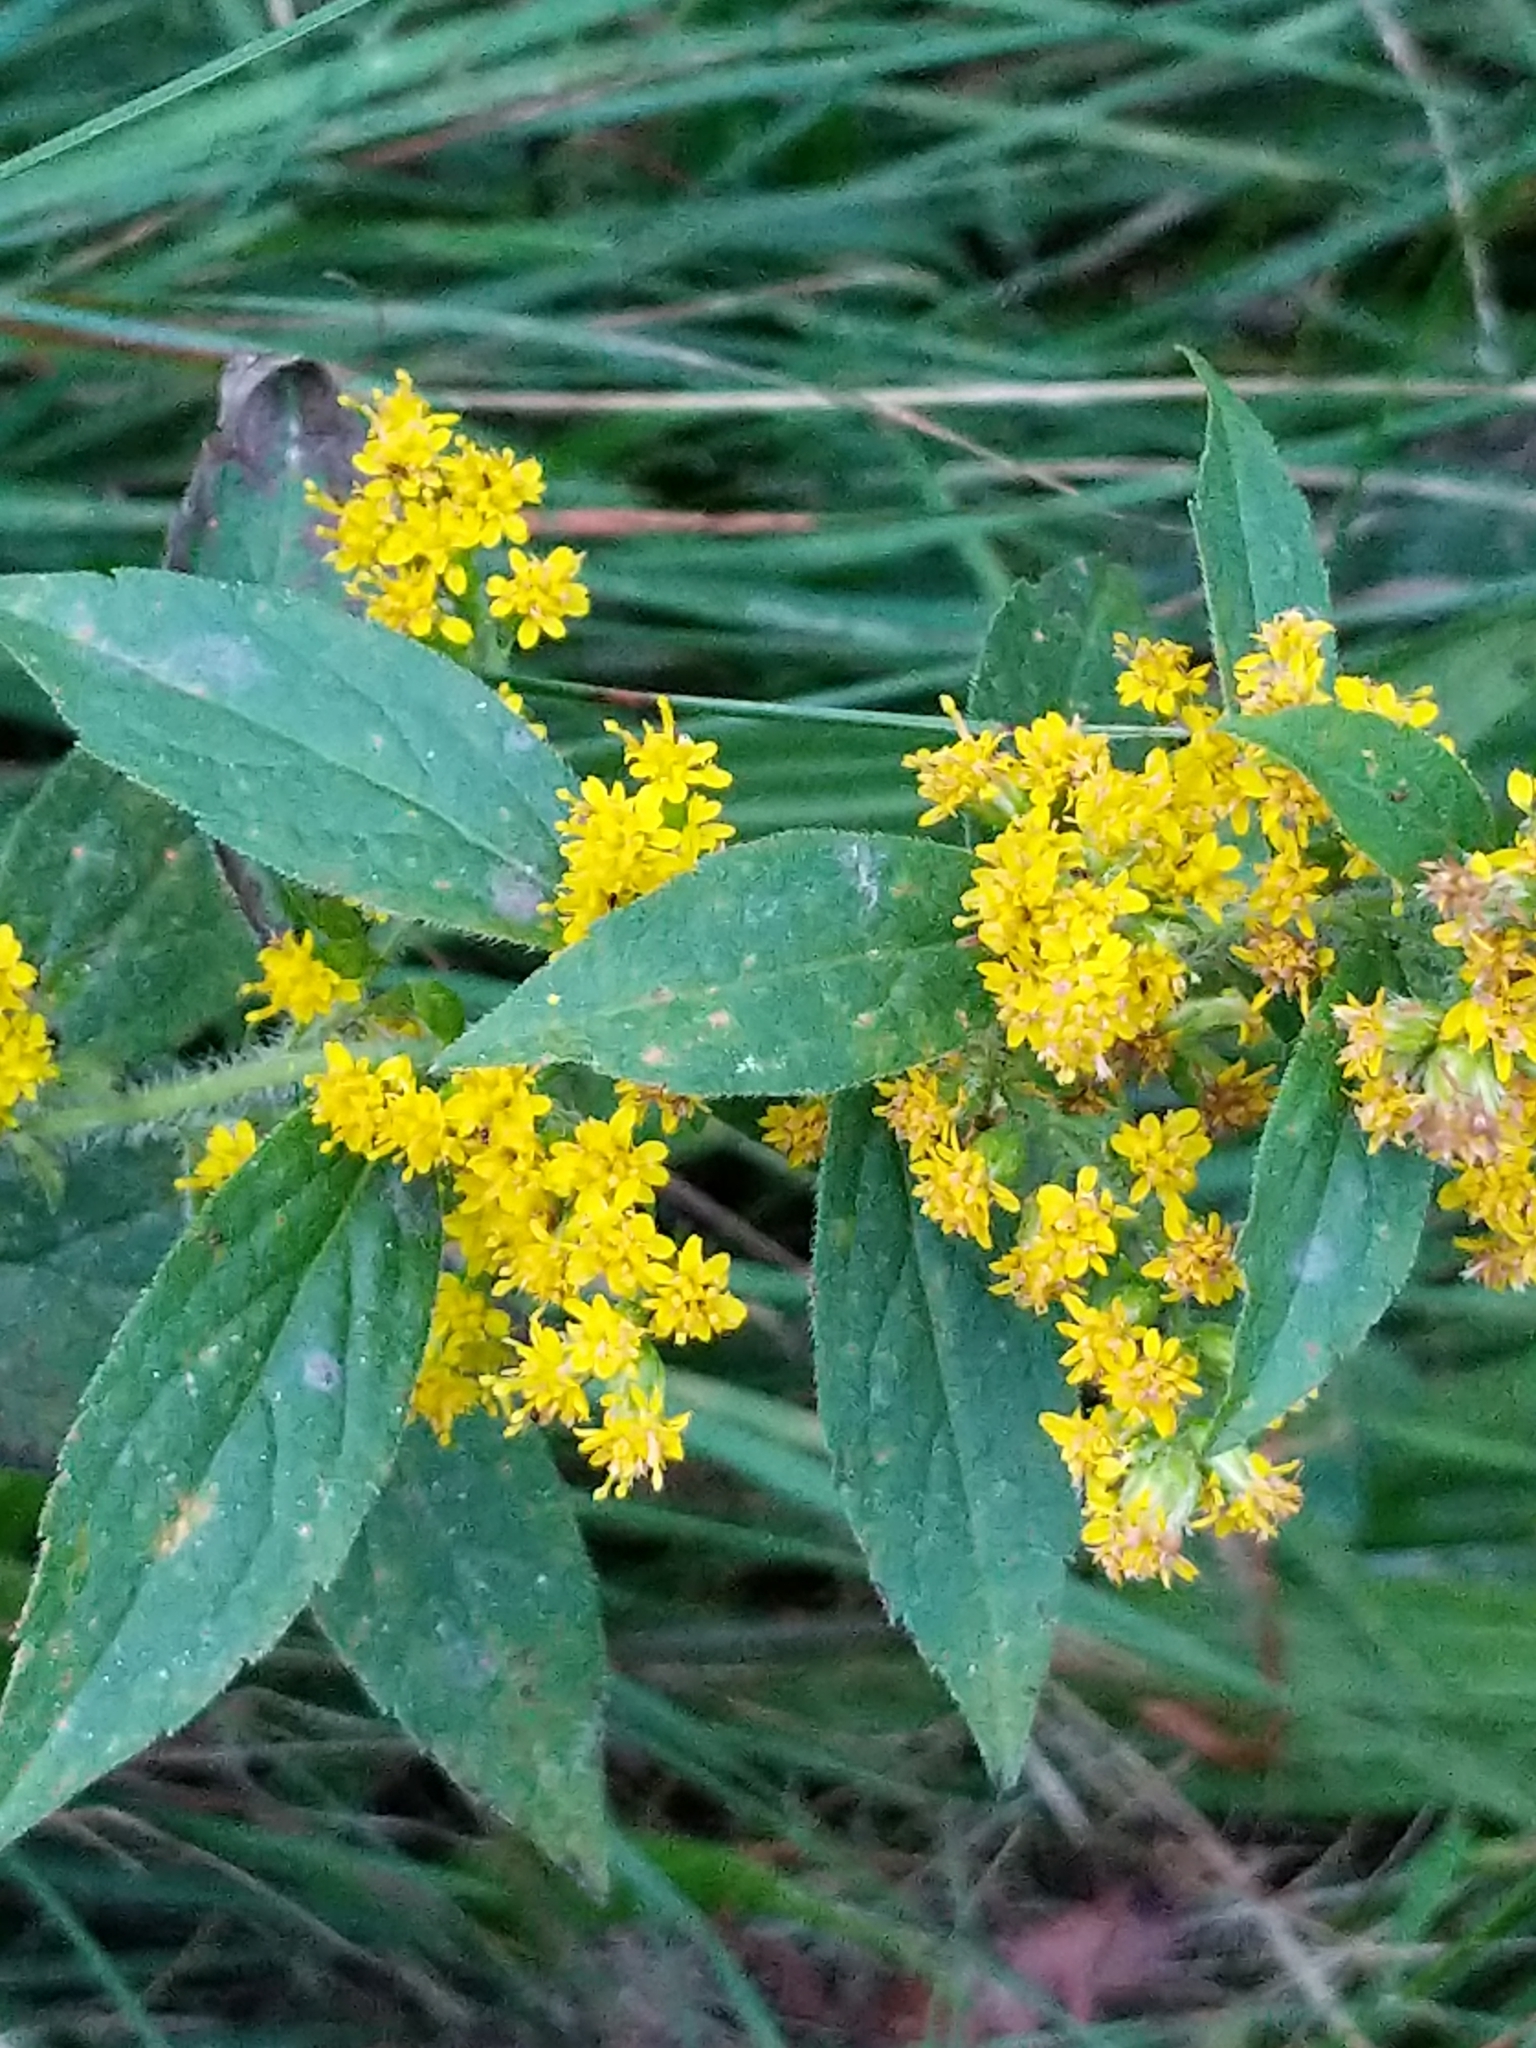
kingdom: Plantae
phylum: Tracheophyta
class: Magnoliopsida
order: Asterales
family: Asteraceae
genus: Solidago
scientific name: Solidago rugosa
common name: Rough-stemmed goldenrod
